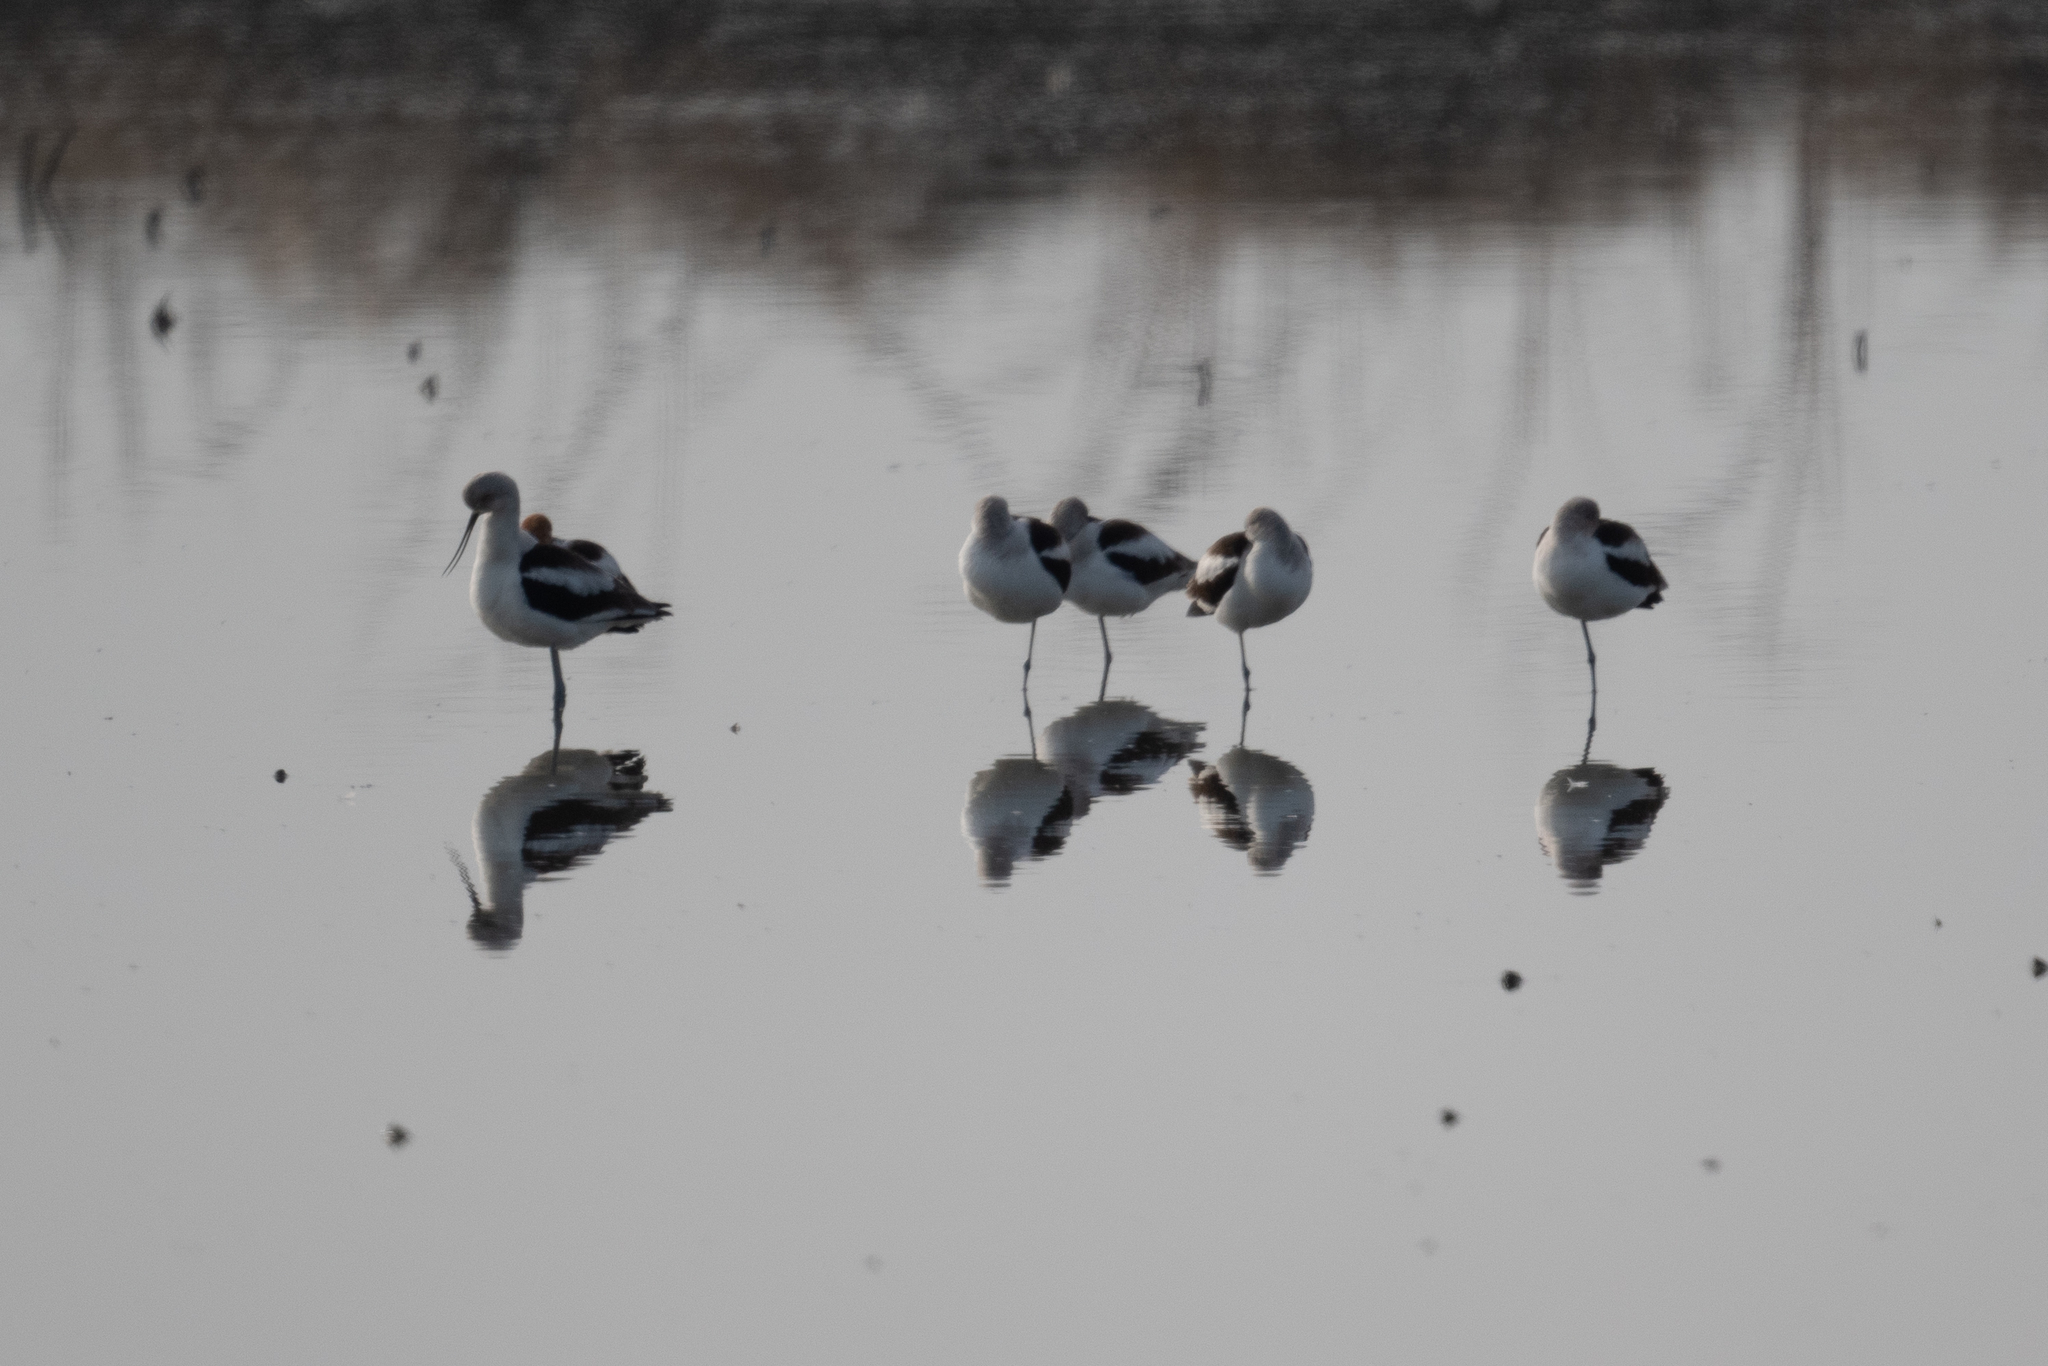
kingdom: Animalia
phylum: Chordata
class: Aves
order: Charadriiformes
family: Recurvirostridae
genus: Recurvirostra
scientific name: Recurvirostra americana
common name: American avocet
